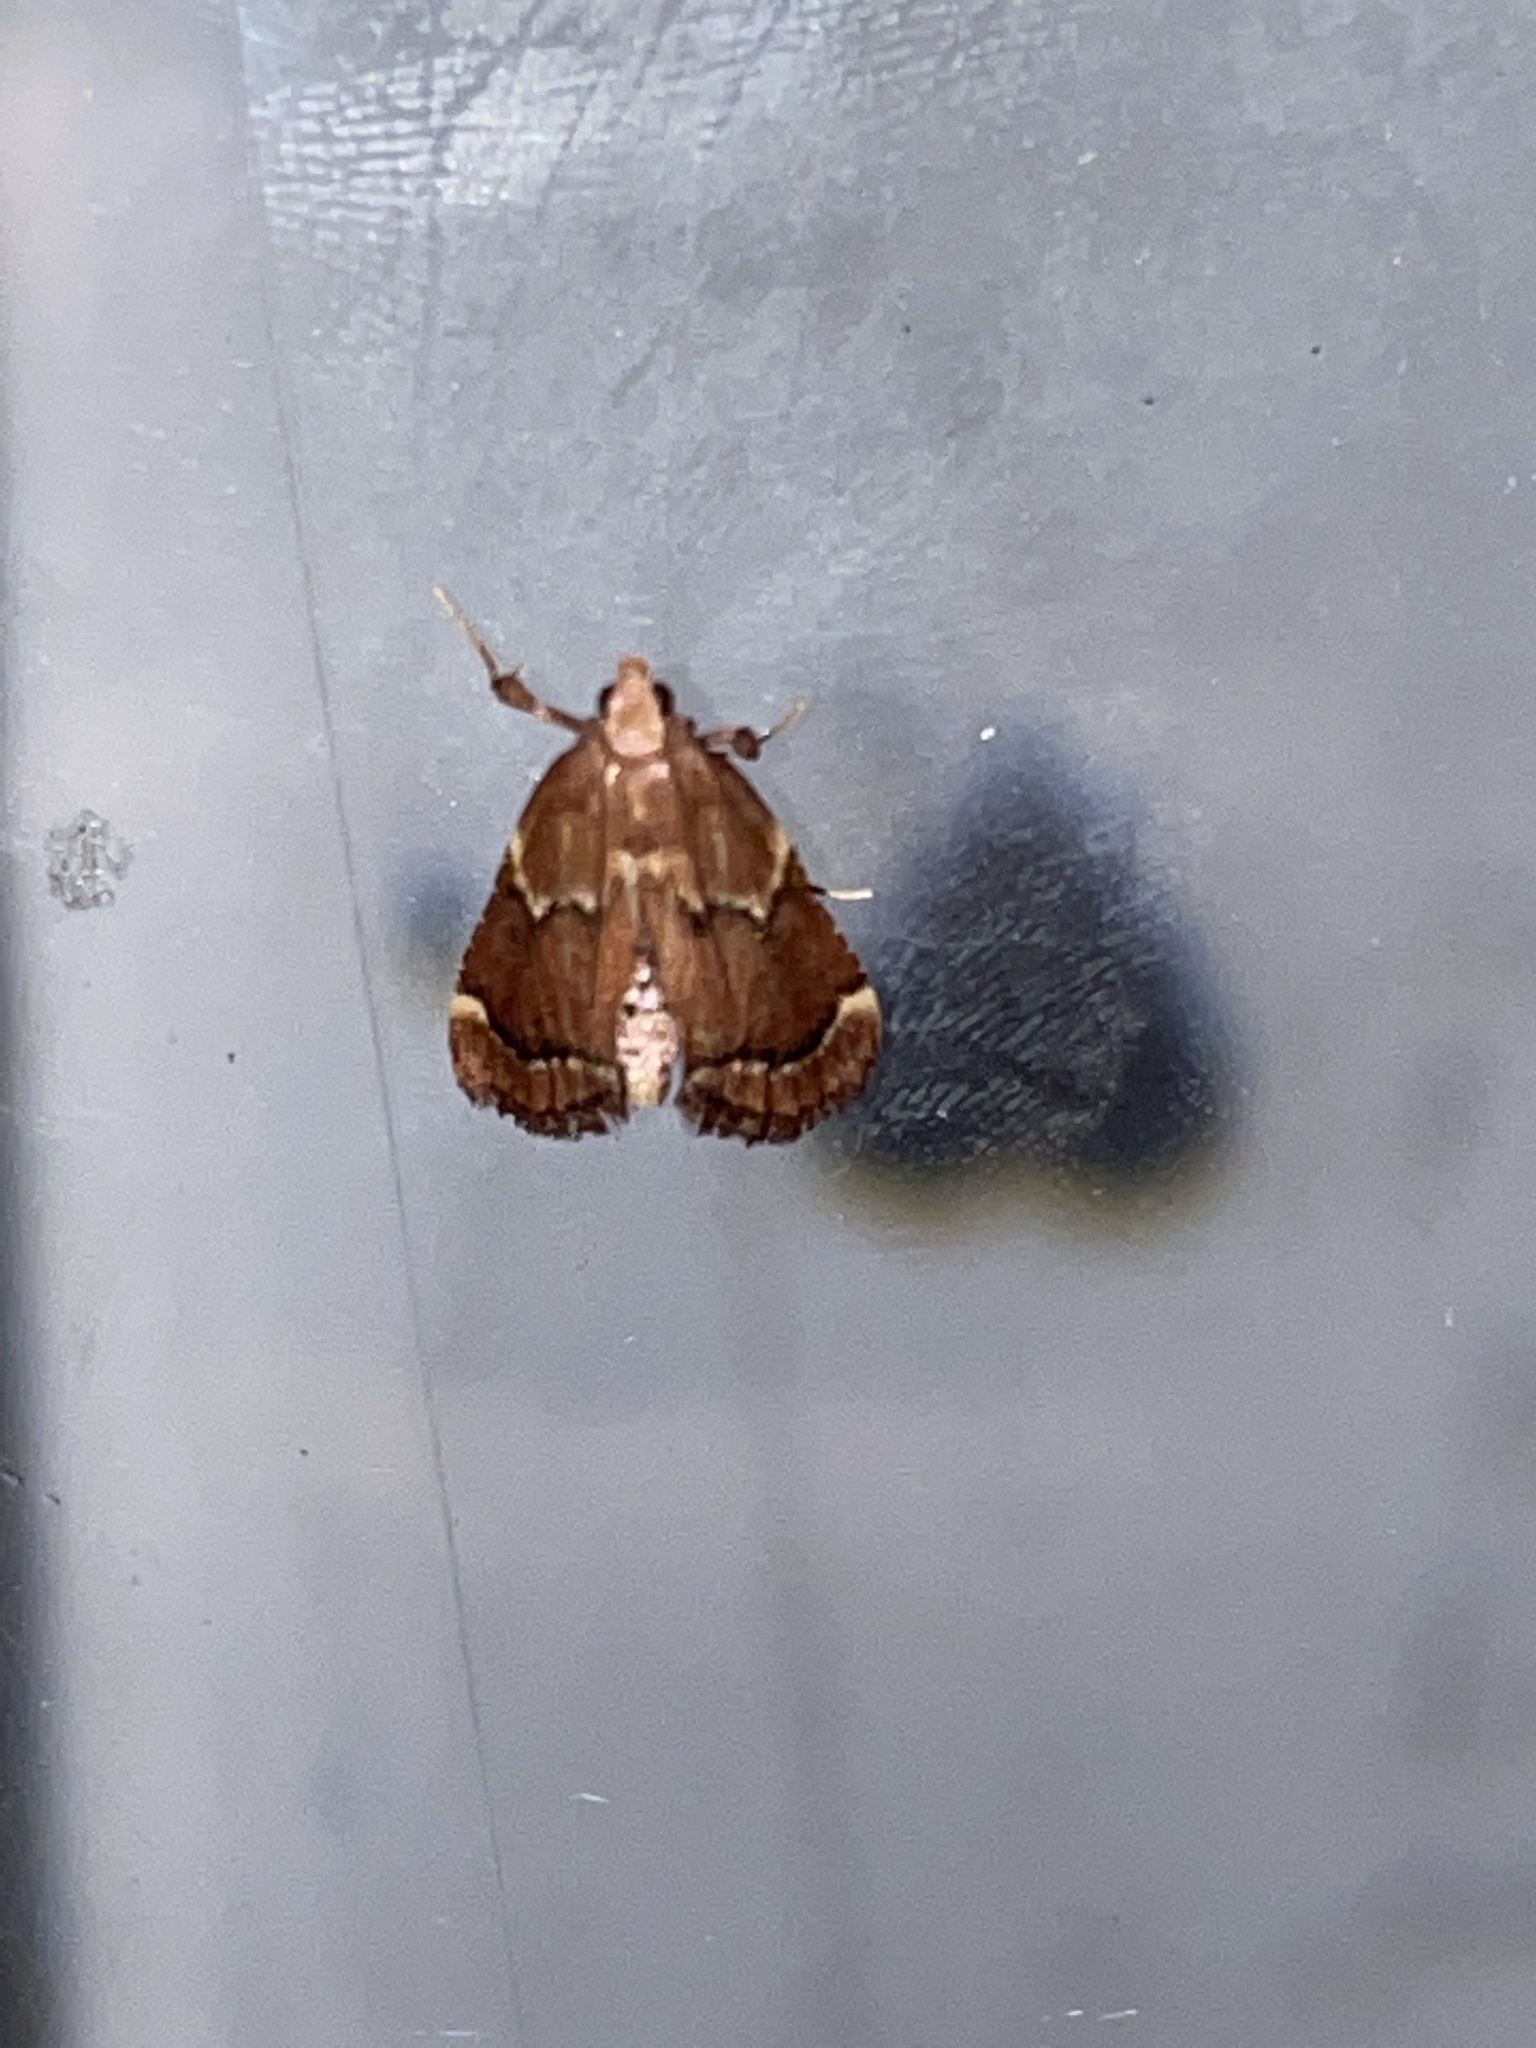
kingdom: Animalia
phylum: Arthropoda
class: Insecta
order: Lepidoptera
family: Pyralidae
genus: Hypsopygia
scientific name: Hypsopygia intermedialis
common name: Red-shawled moth
